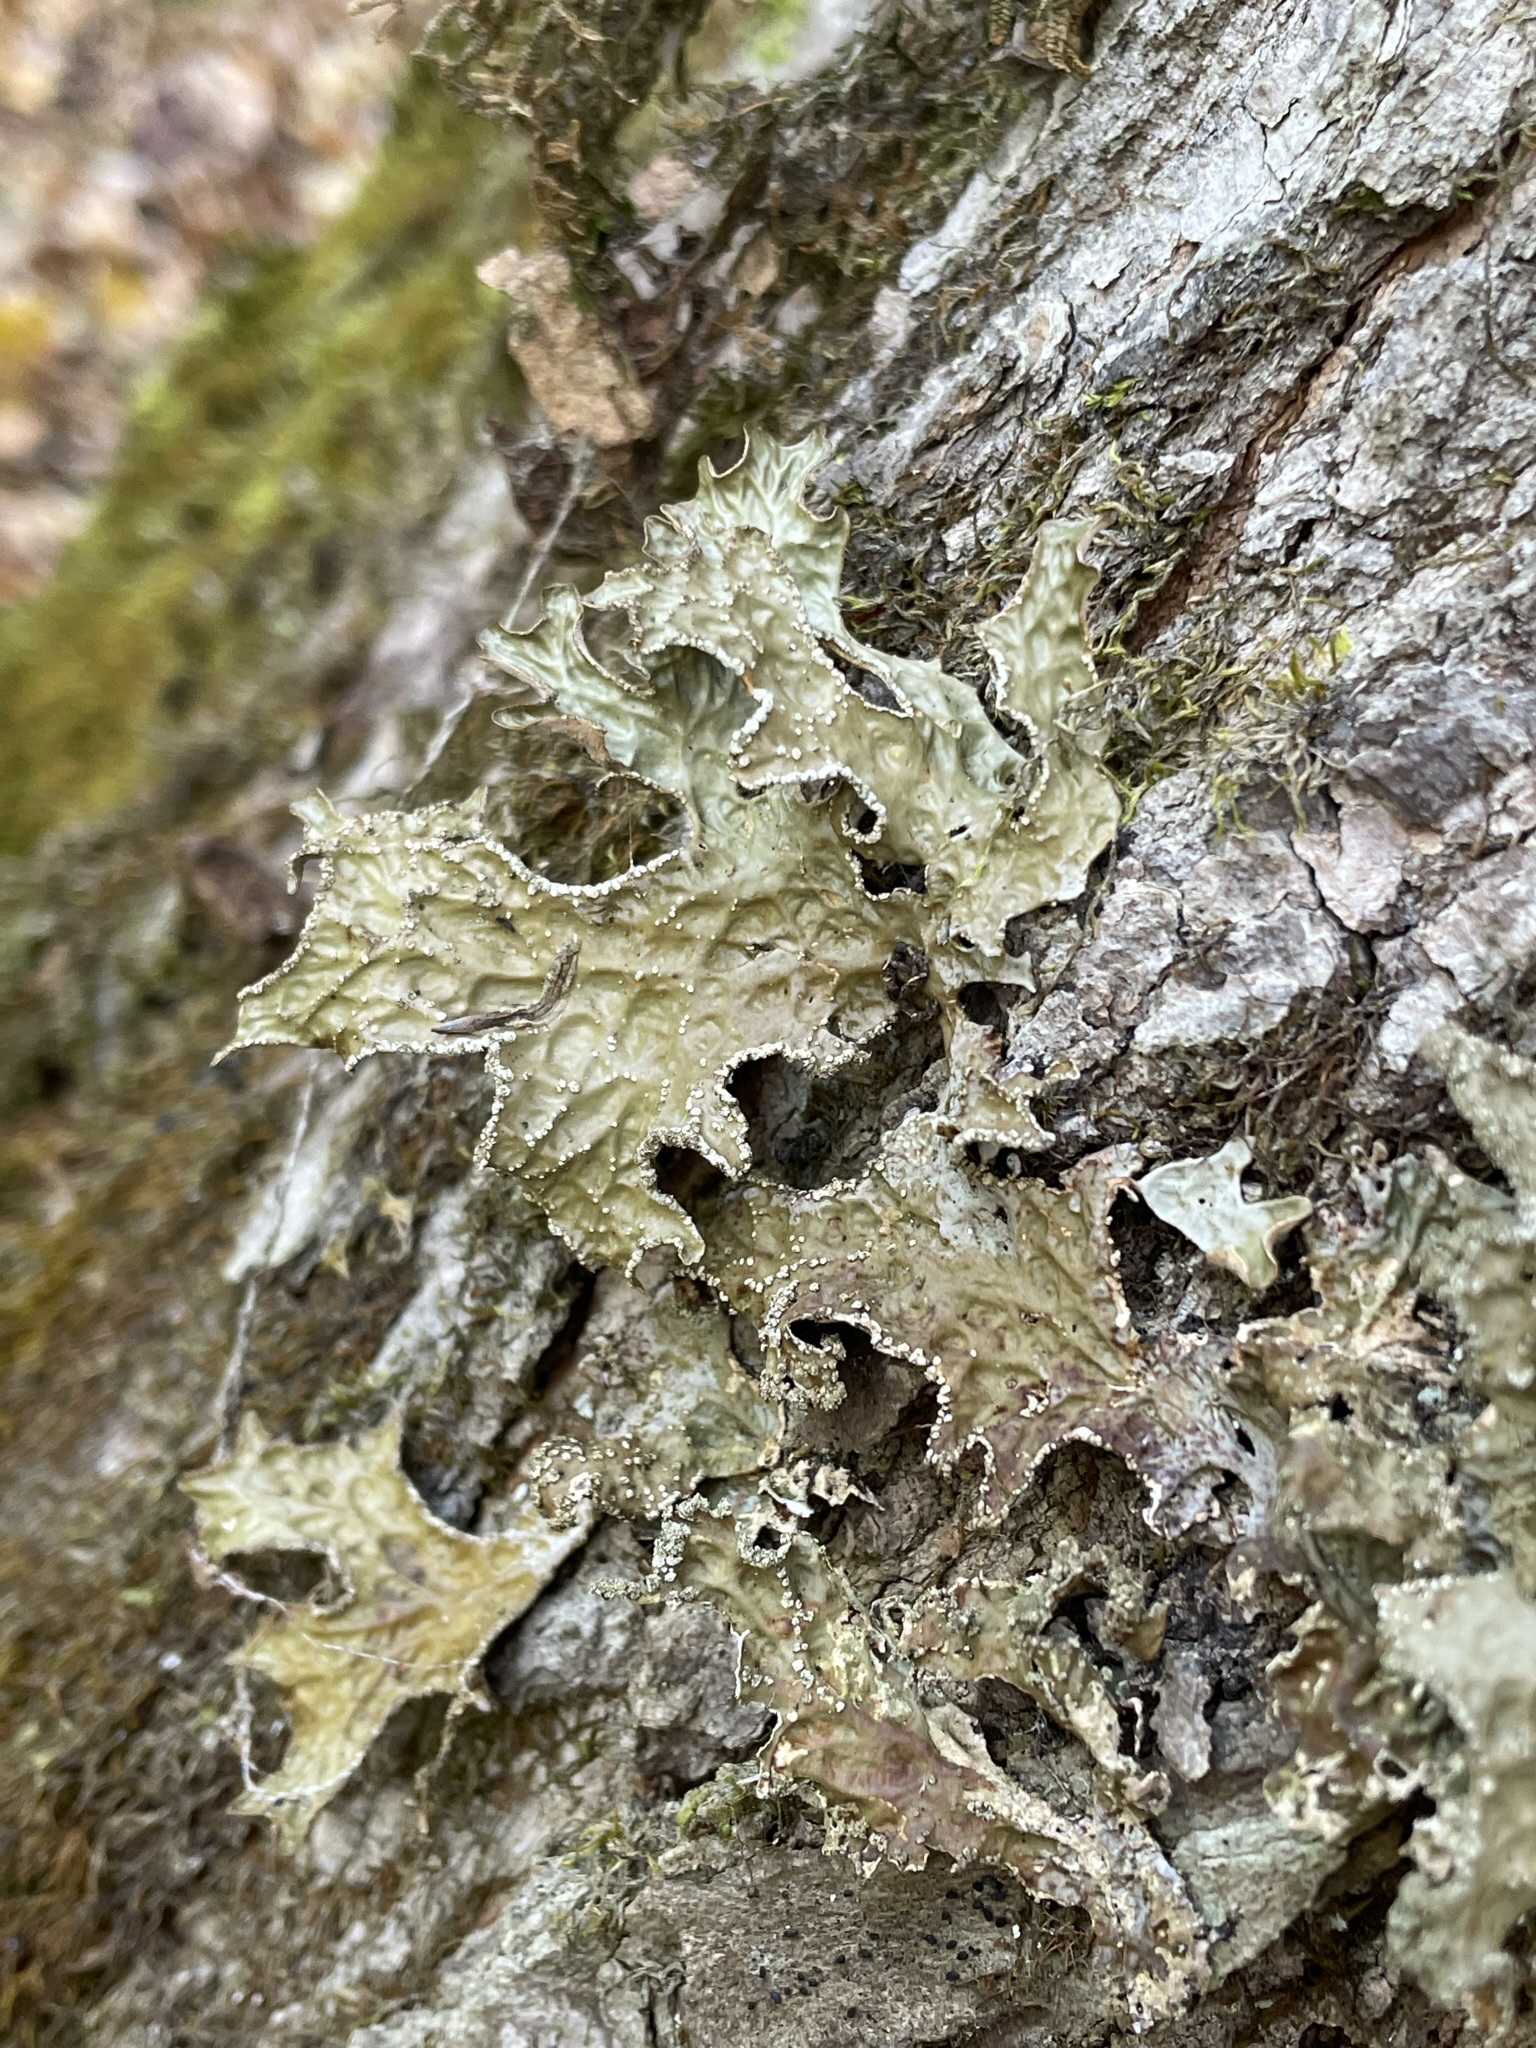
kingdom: Fungi
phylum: Ascomycota
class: Lecanoromycetes
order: Peltigerales
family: Lobariaceae
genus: Lobaria
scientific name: Lobaria pulmonaria
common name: Lungwort
